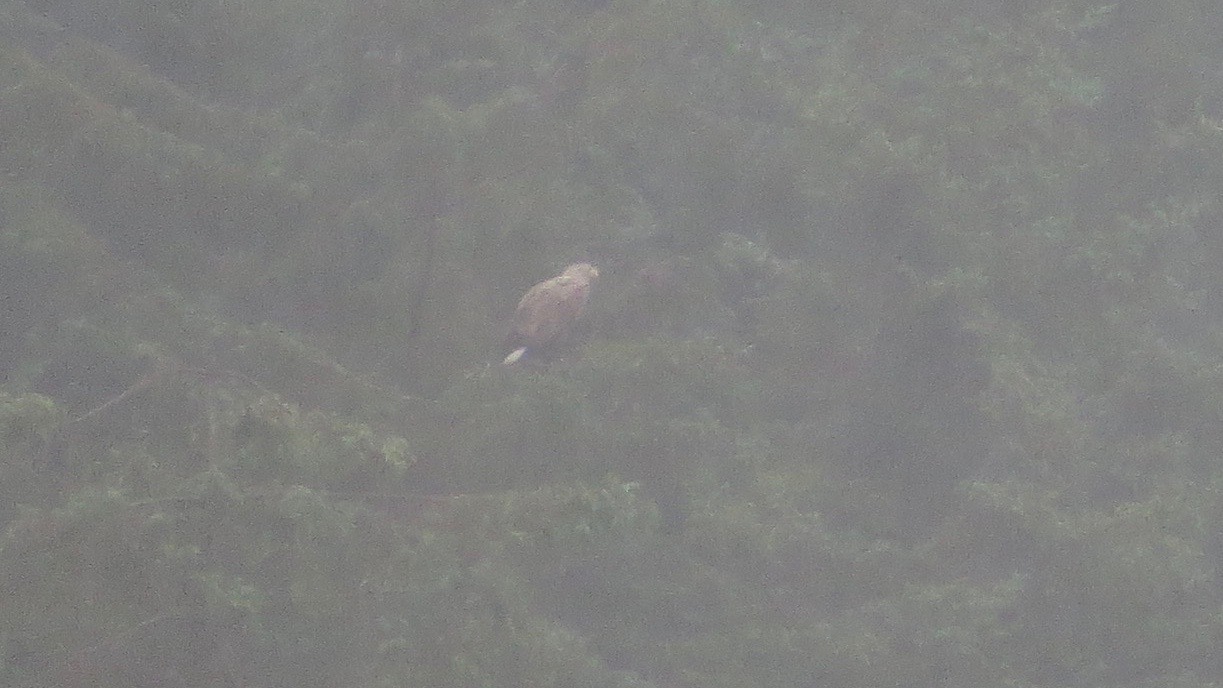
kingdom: Animalia
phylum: Chordata
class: Aves
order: Accipitriformes
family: Accipitridae
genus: Haliaeetus
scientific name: Haliaeetus albicilla
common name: White-tailed eagle
